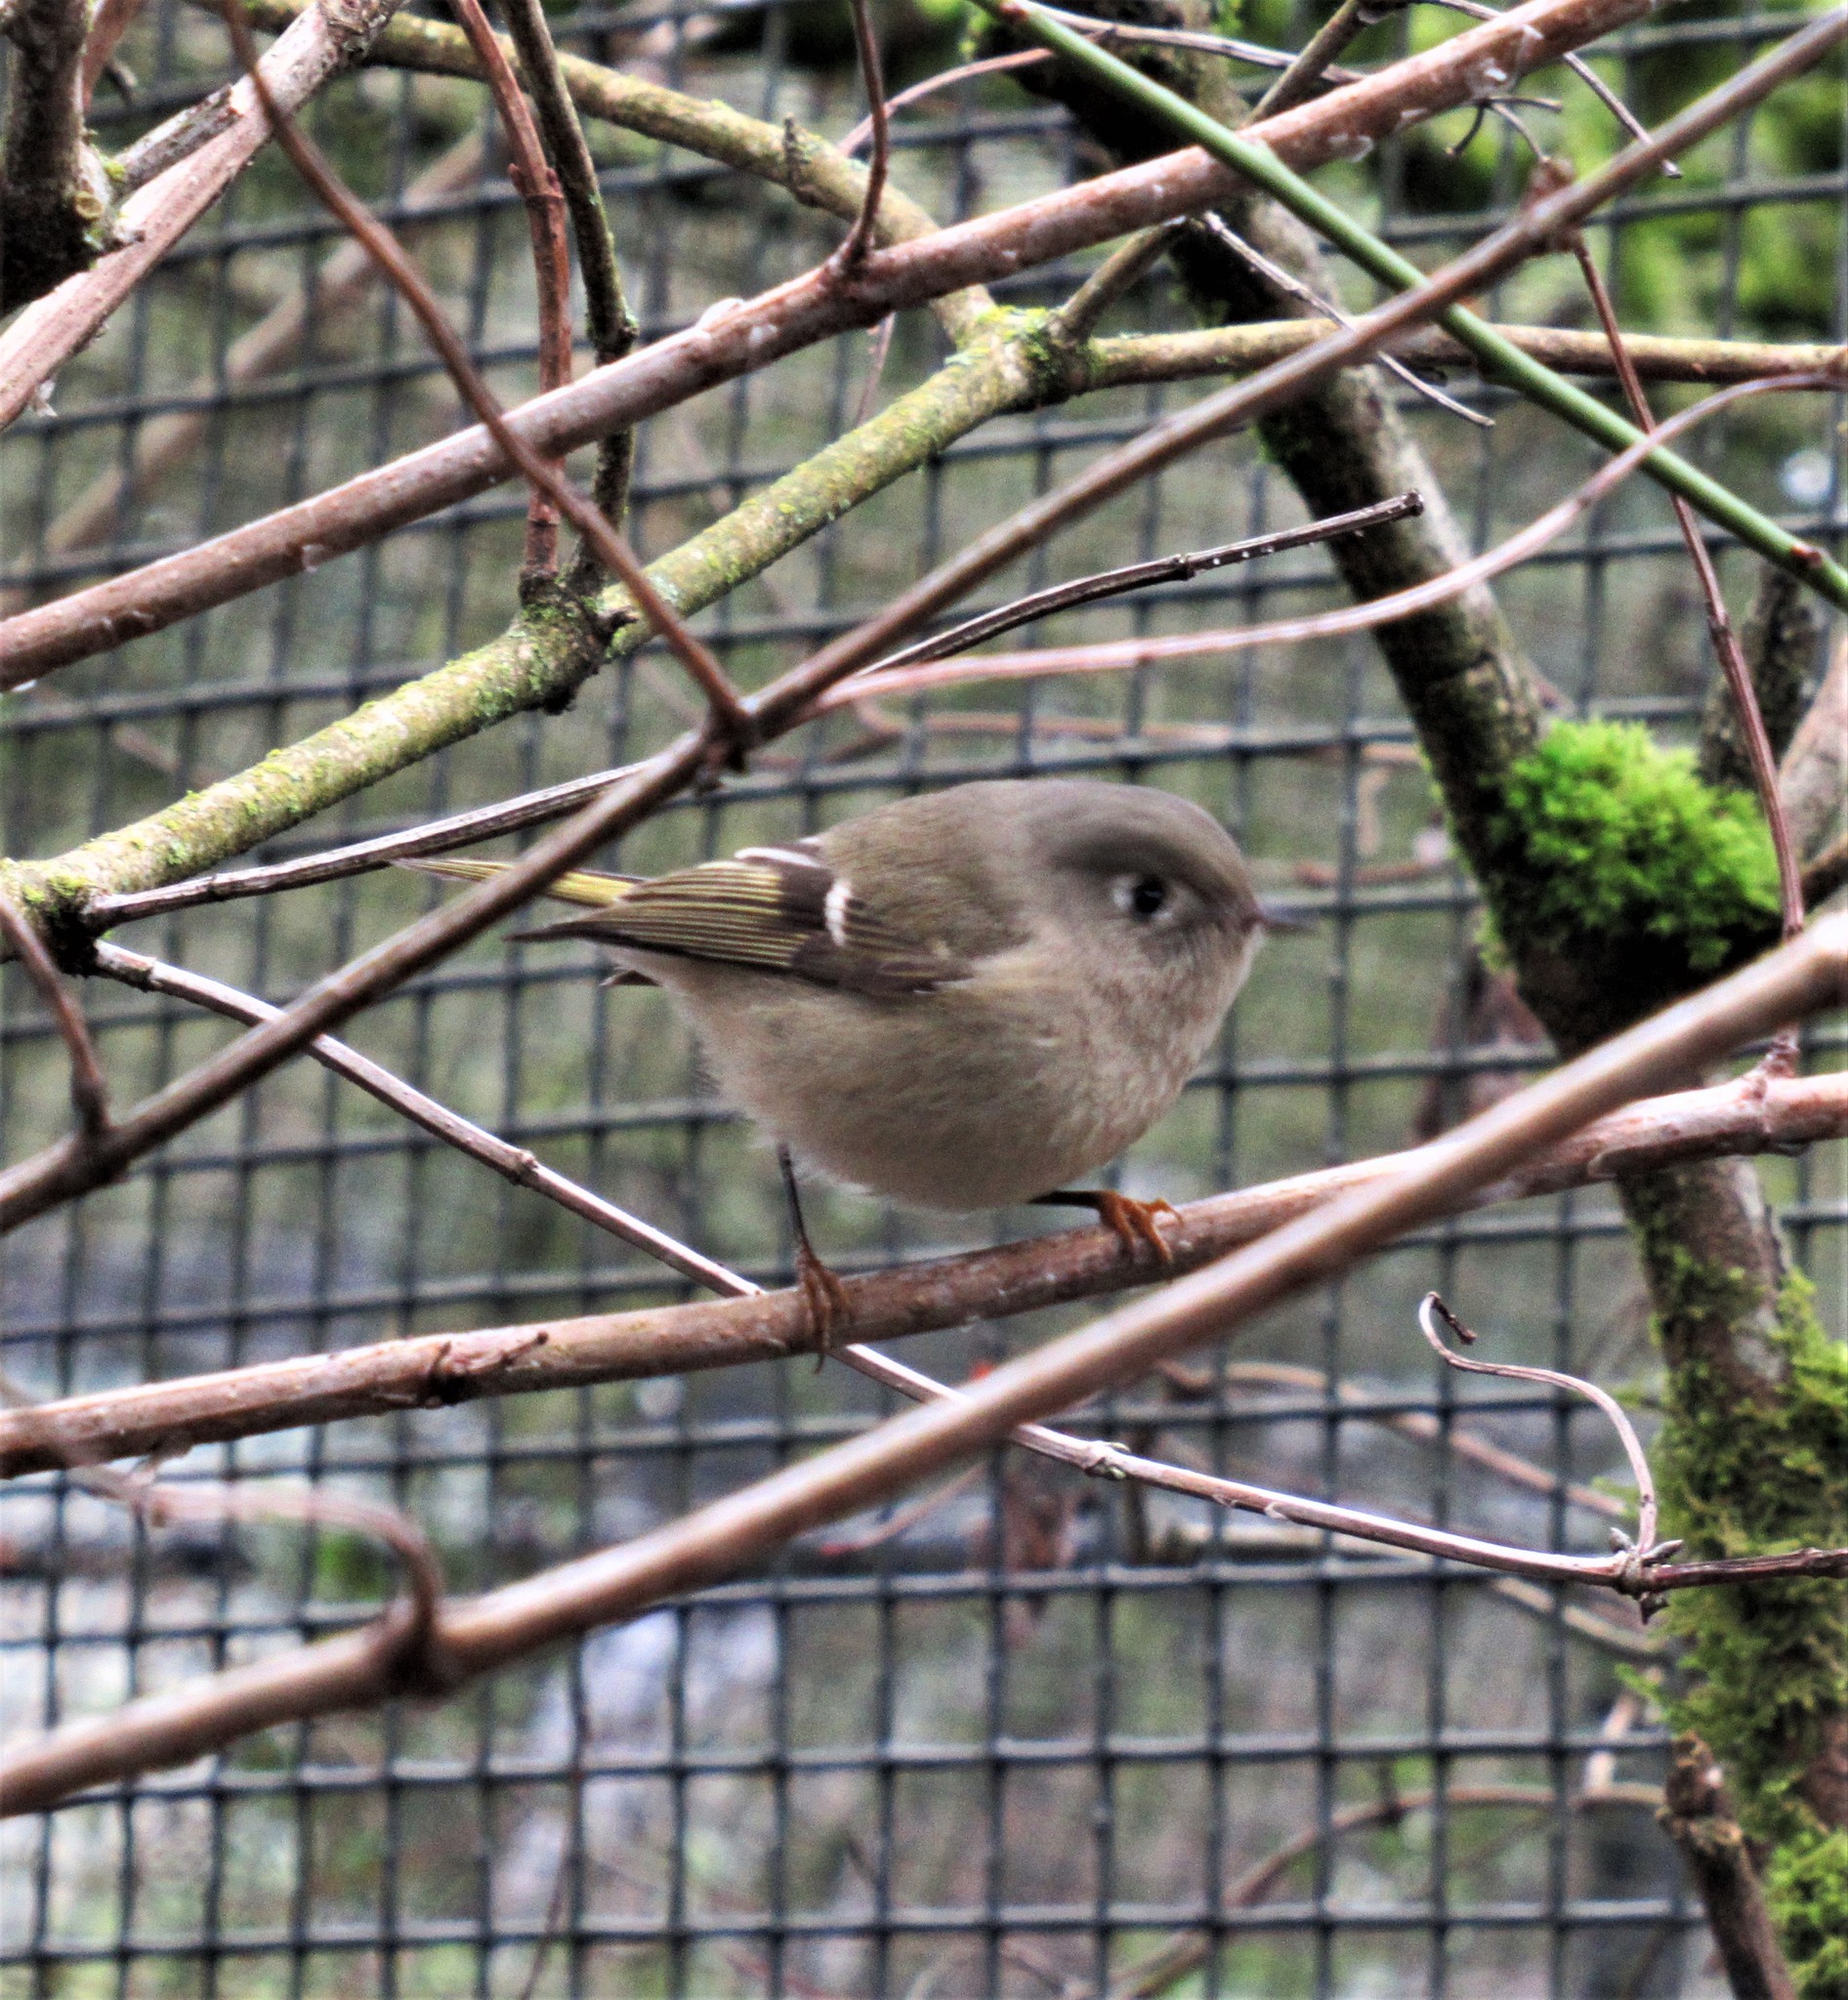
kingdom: Animalia
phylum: Chordata
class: Aves
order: Passeriformes
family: Regulidae
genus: Regulus
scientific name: Regulus calendula
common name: Ruby-crowned kinglet
